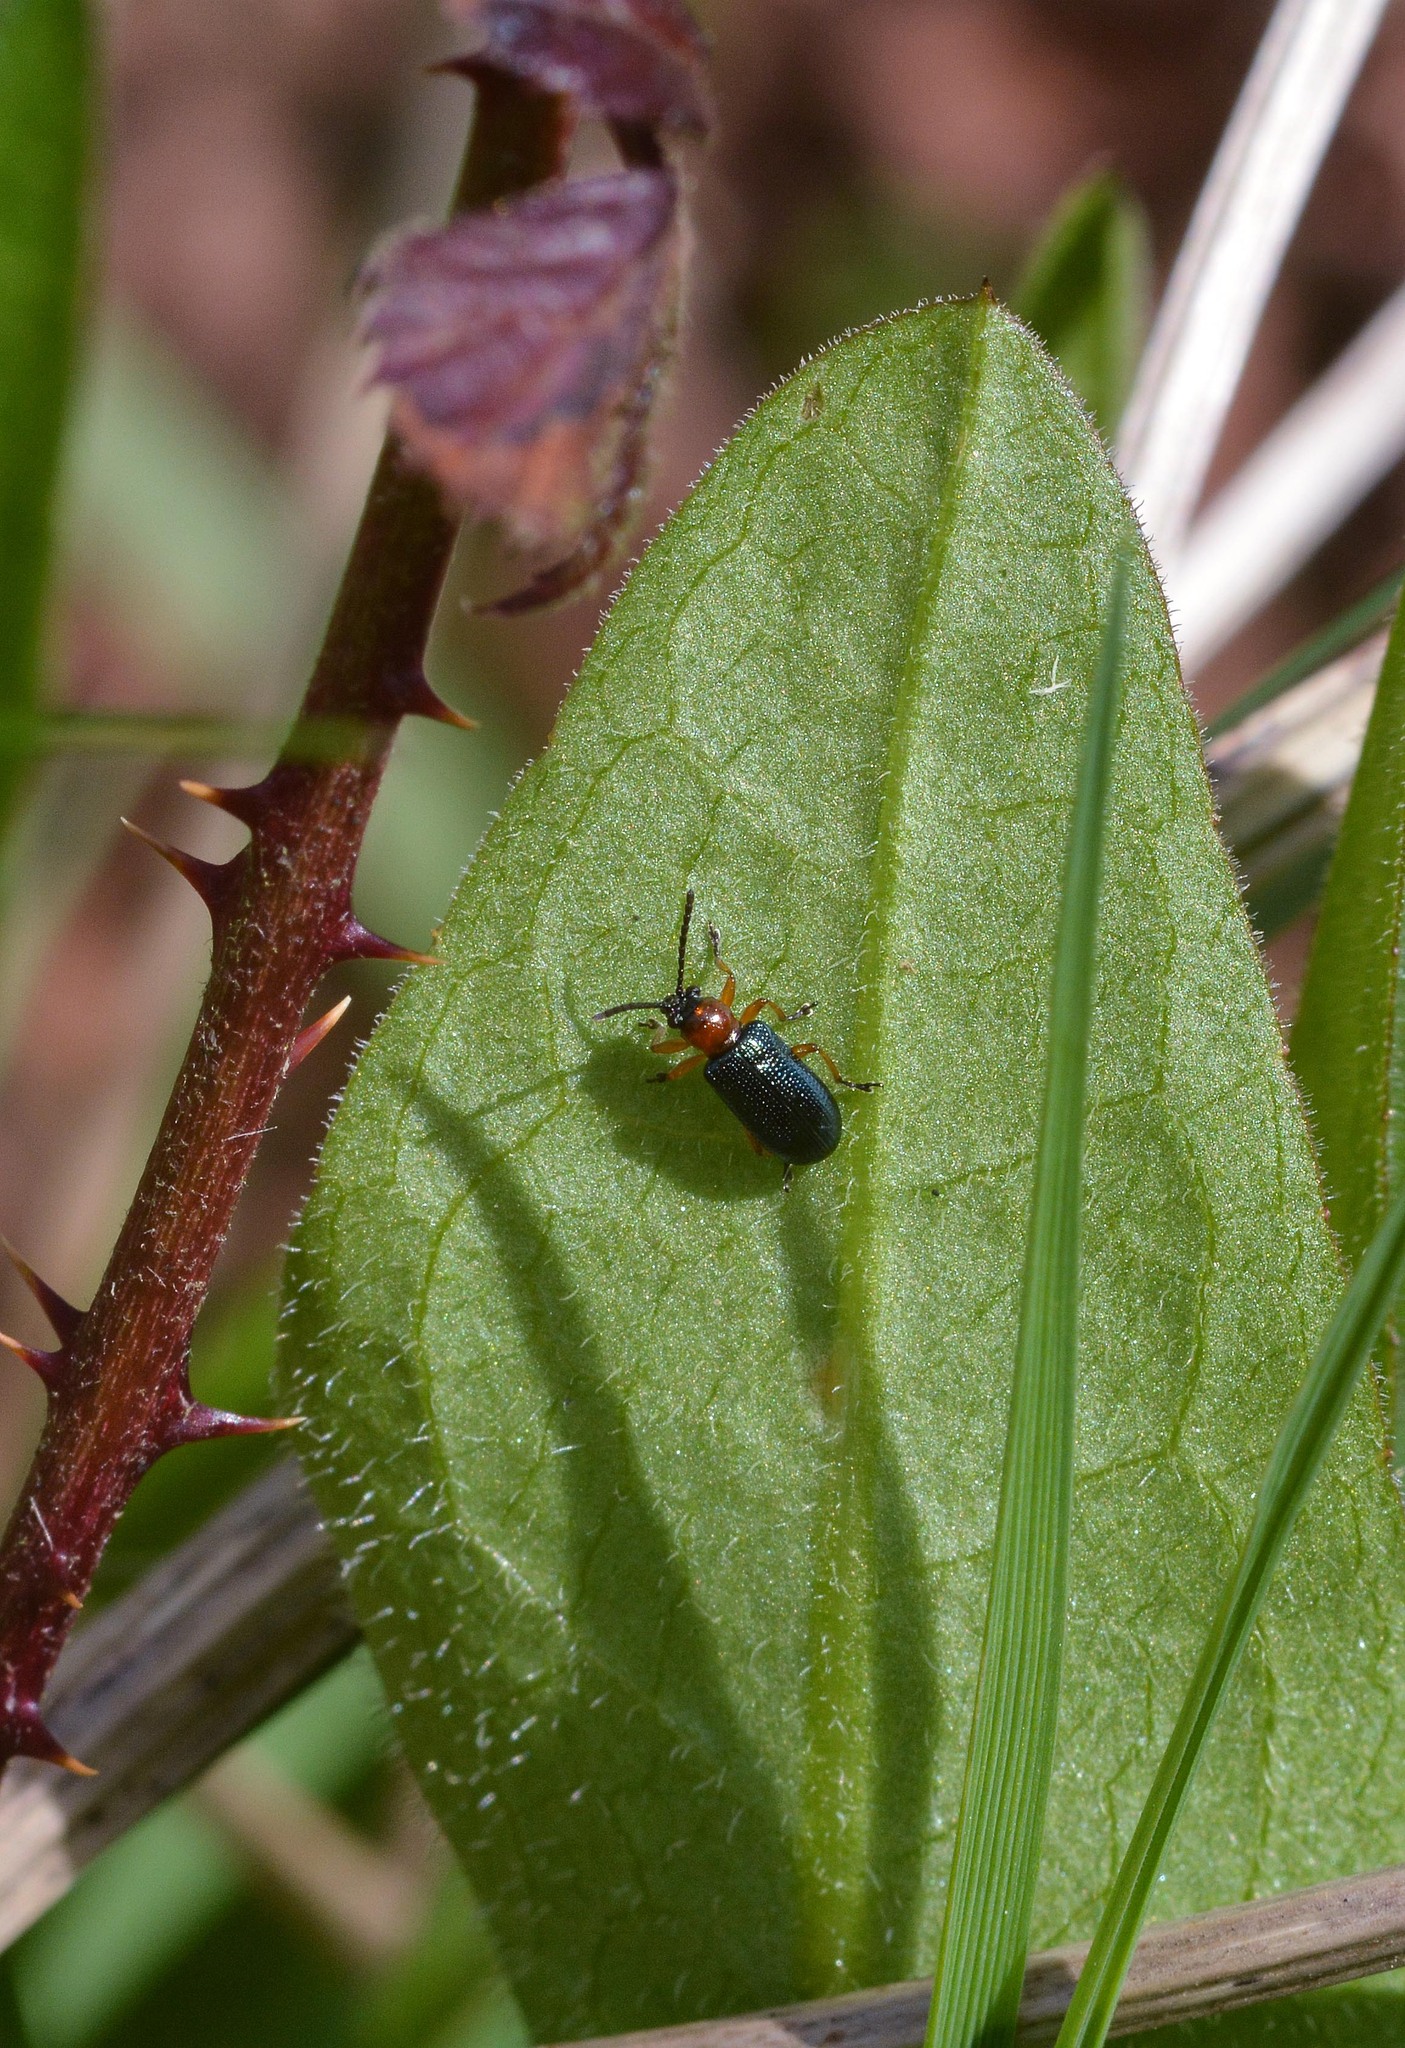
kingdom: Animalia
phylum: Arthropoda
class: Insecta
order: Coleoptera
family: Chrysomelidae
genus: Oulema
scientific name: Oulema
